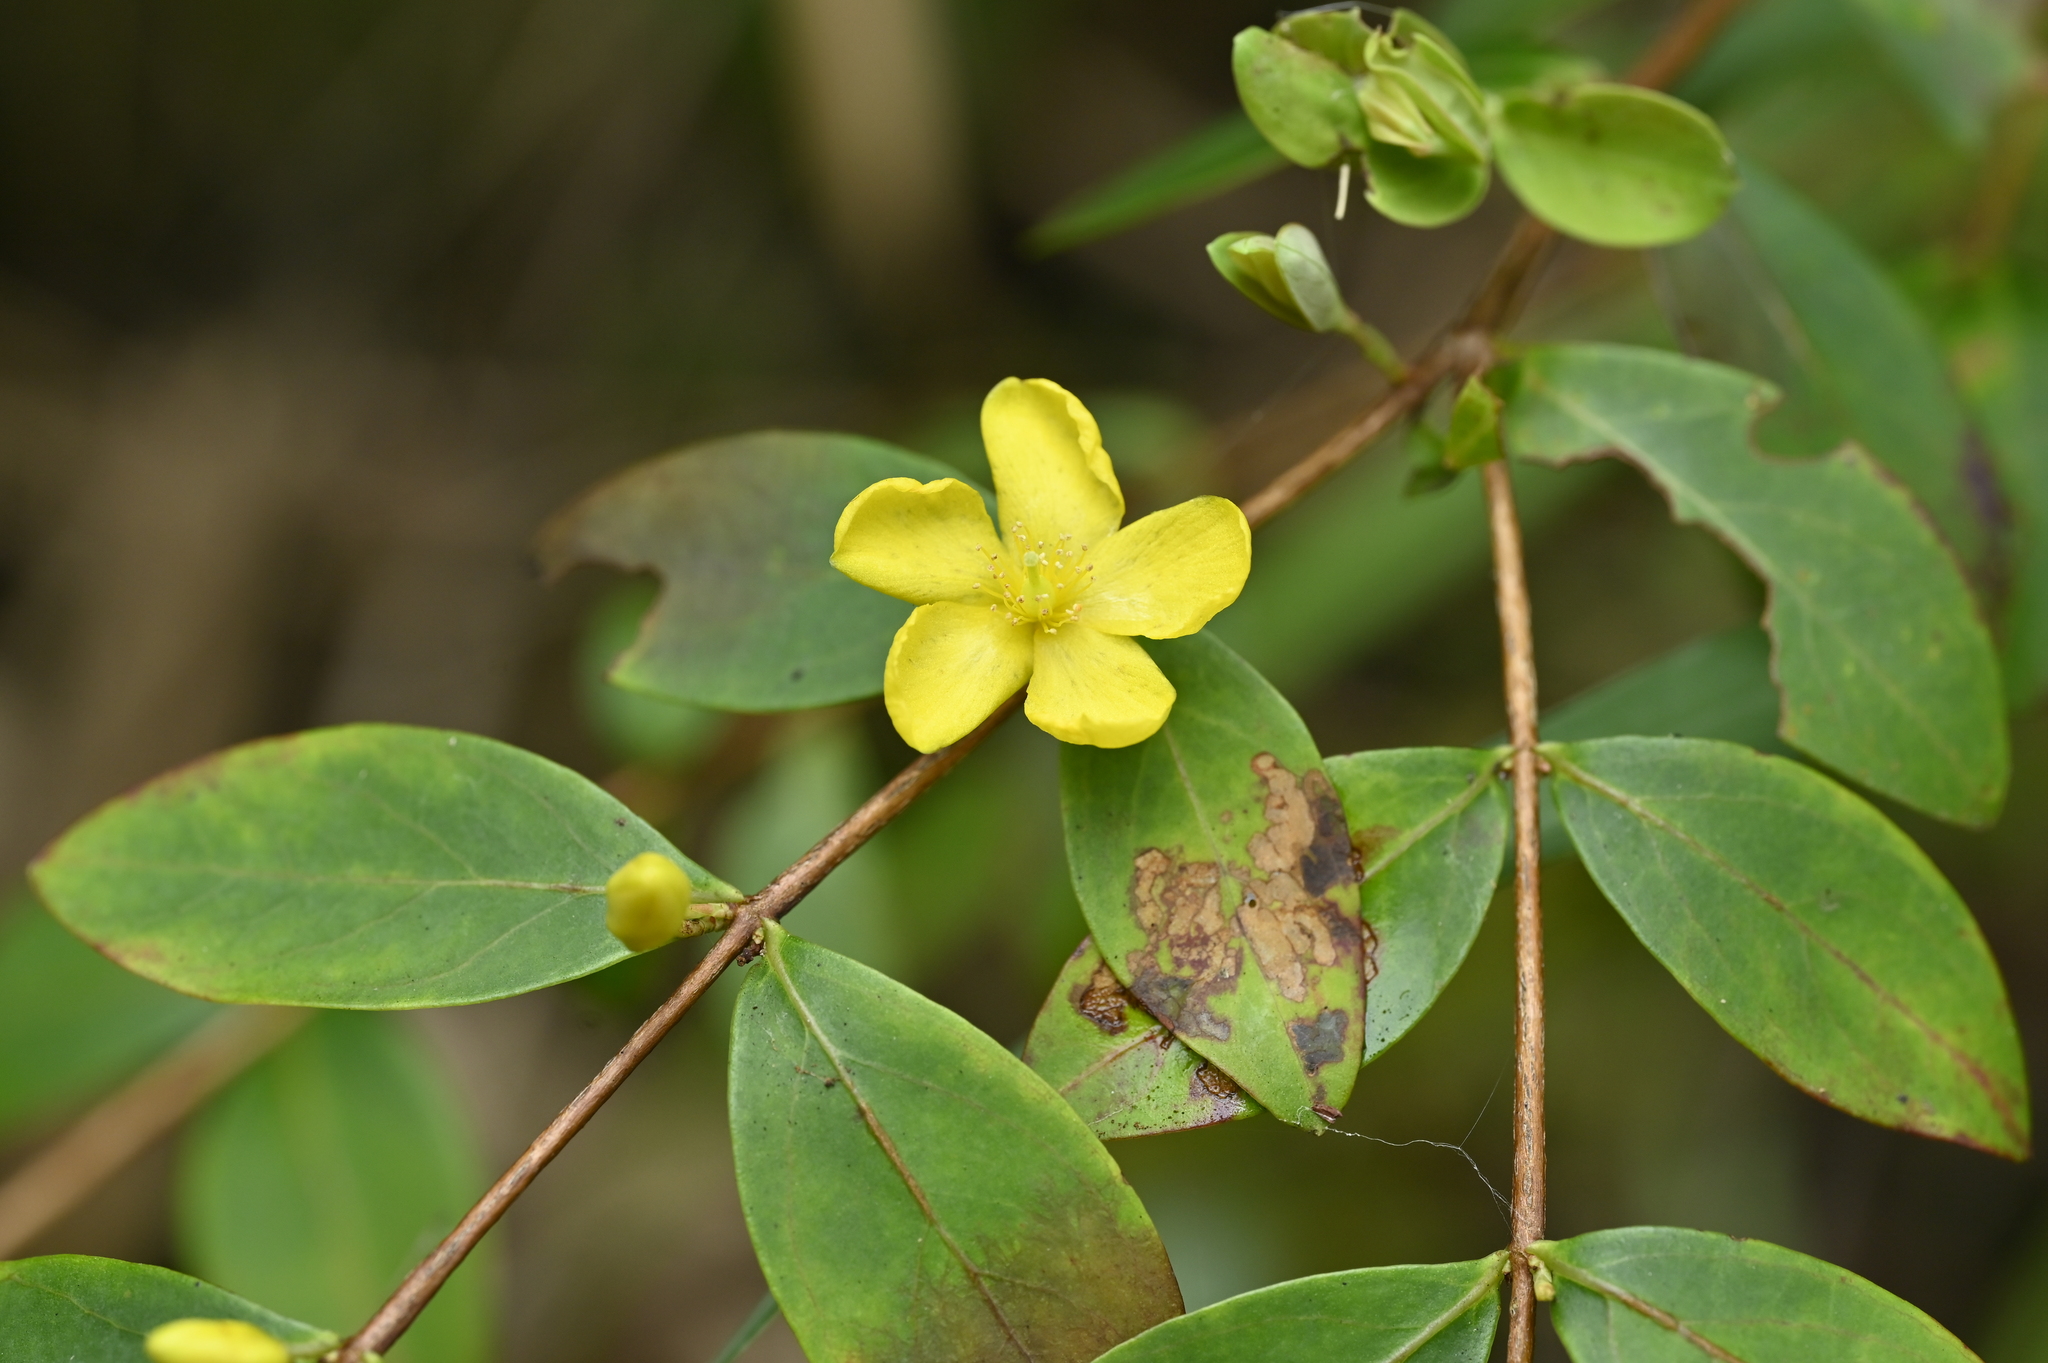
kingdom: Plantae
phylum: Tracheophyta
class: Magnoliopsida
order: Malpighiales
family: Hypericaceae
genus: Hypericum
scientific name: Hypericum geminiflorum
